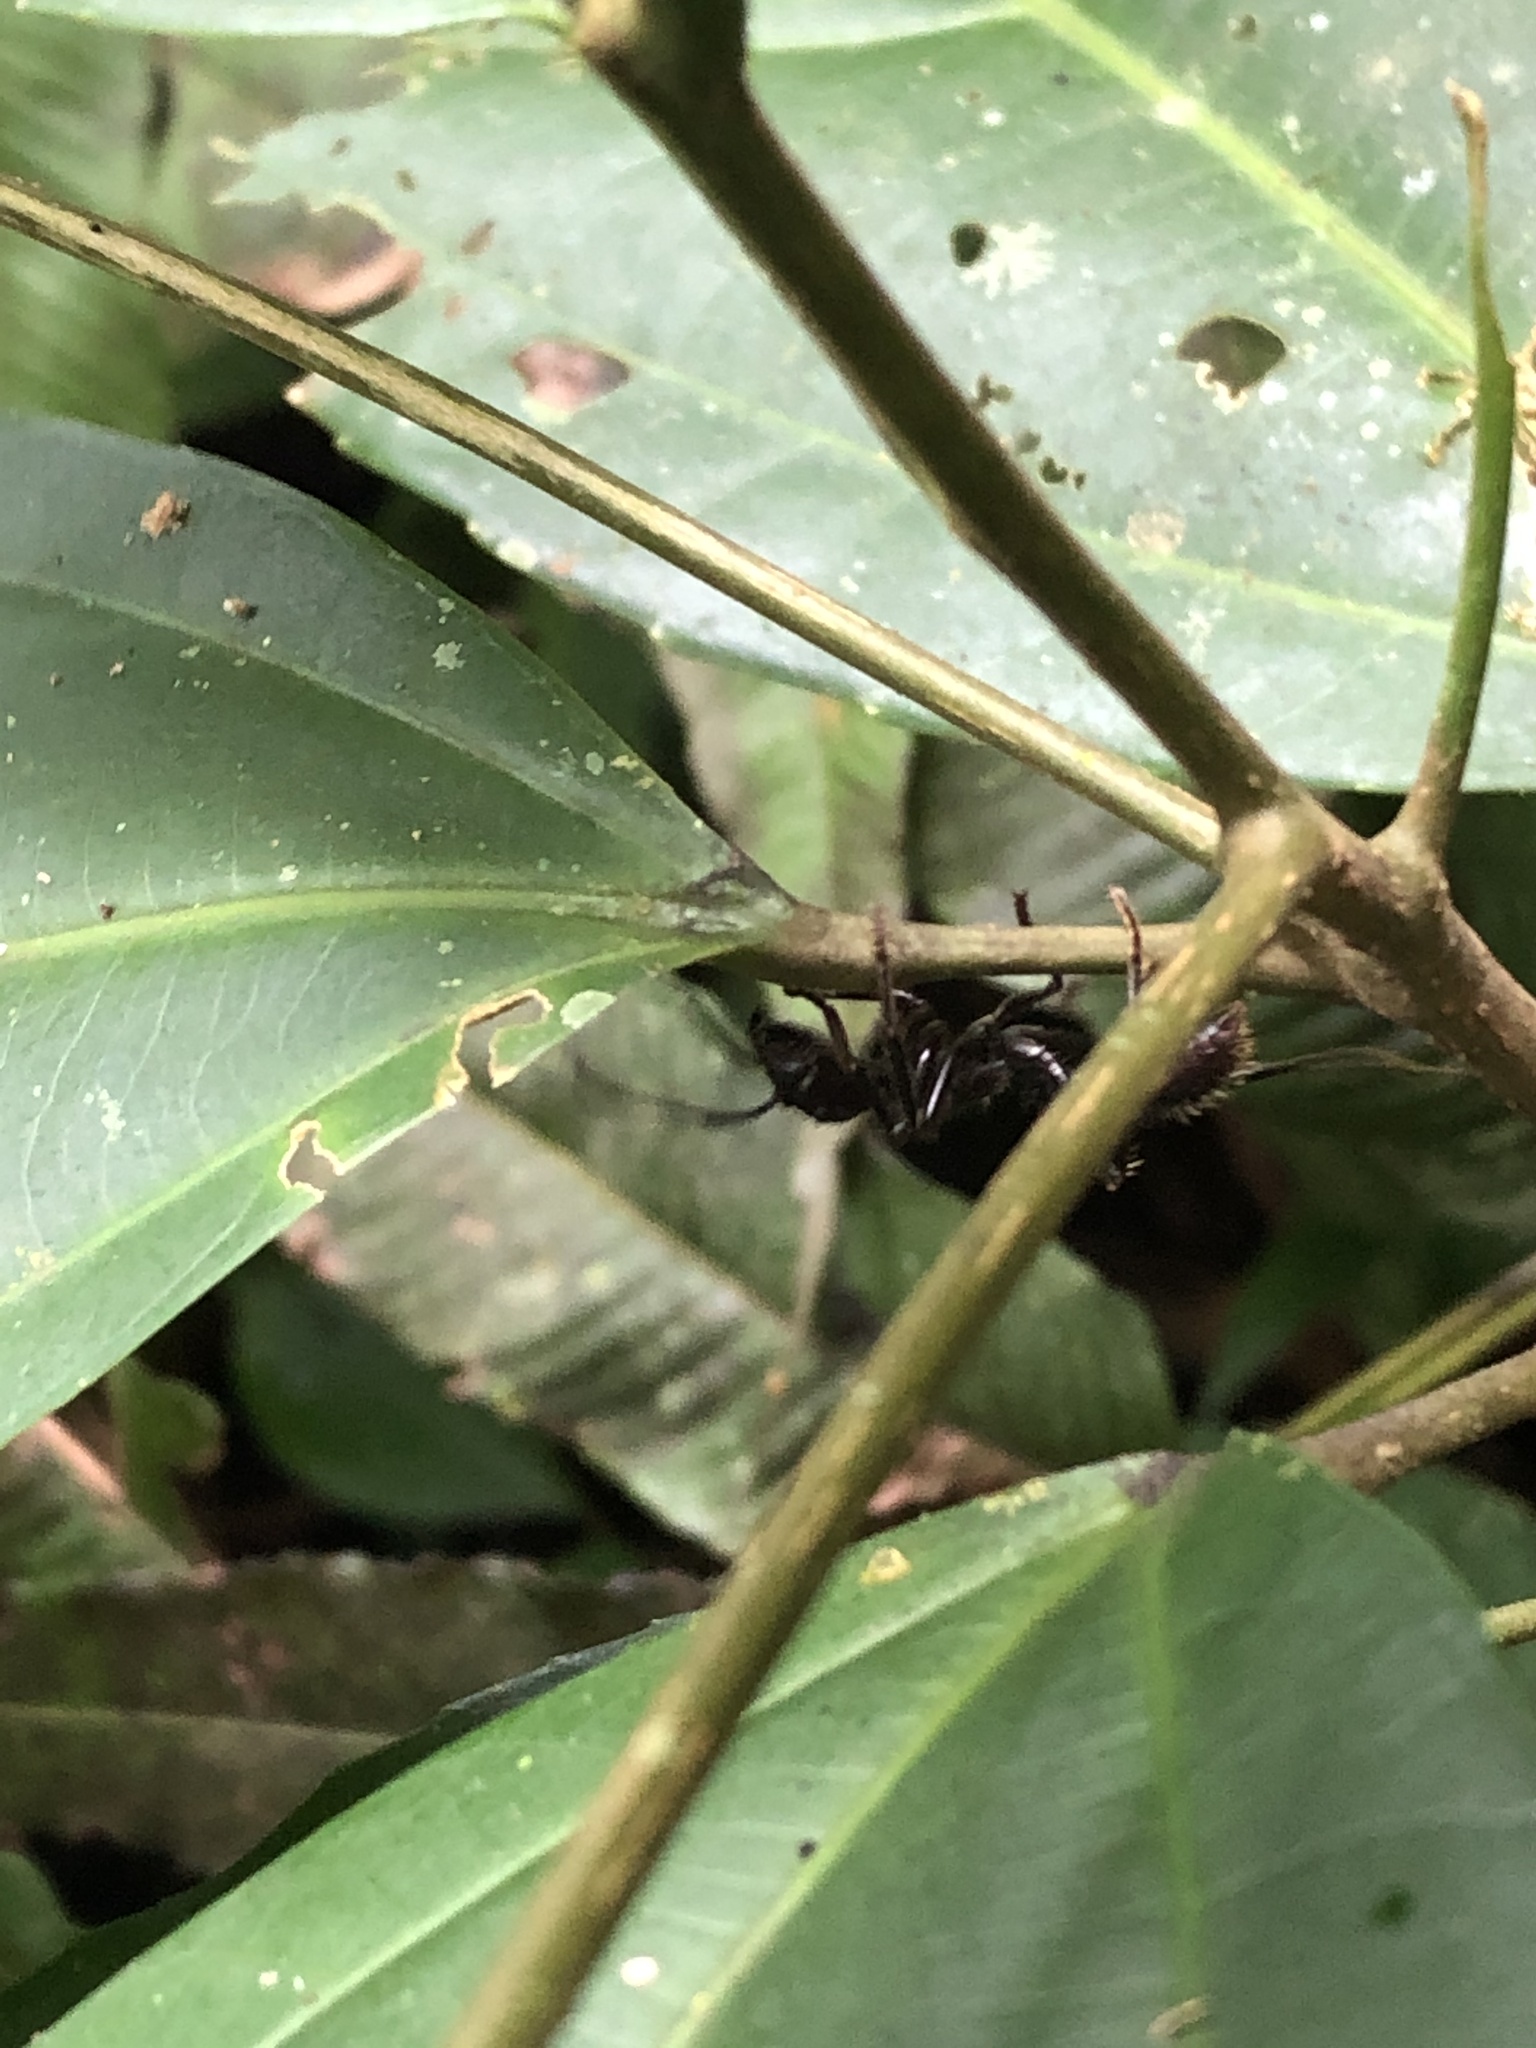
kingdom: Animalia
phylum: Arthropoda
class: Insecta
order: Hymenoptera
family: Formicidae
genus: Paraponera
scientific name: Paraponera clavata
